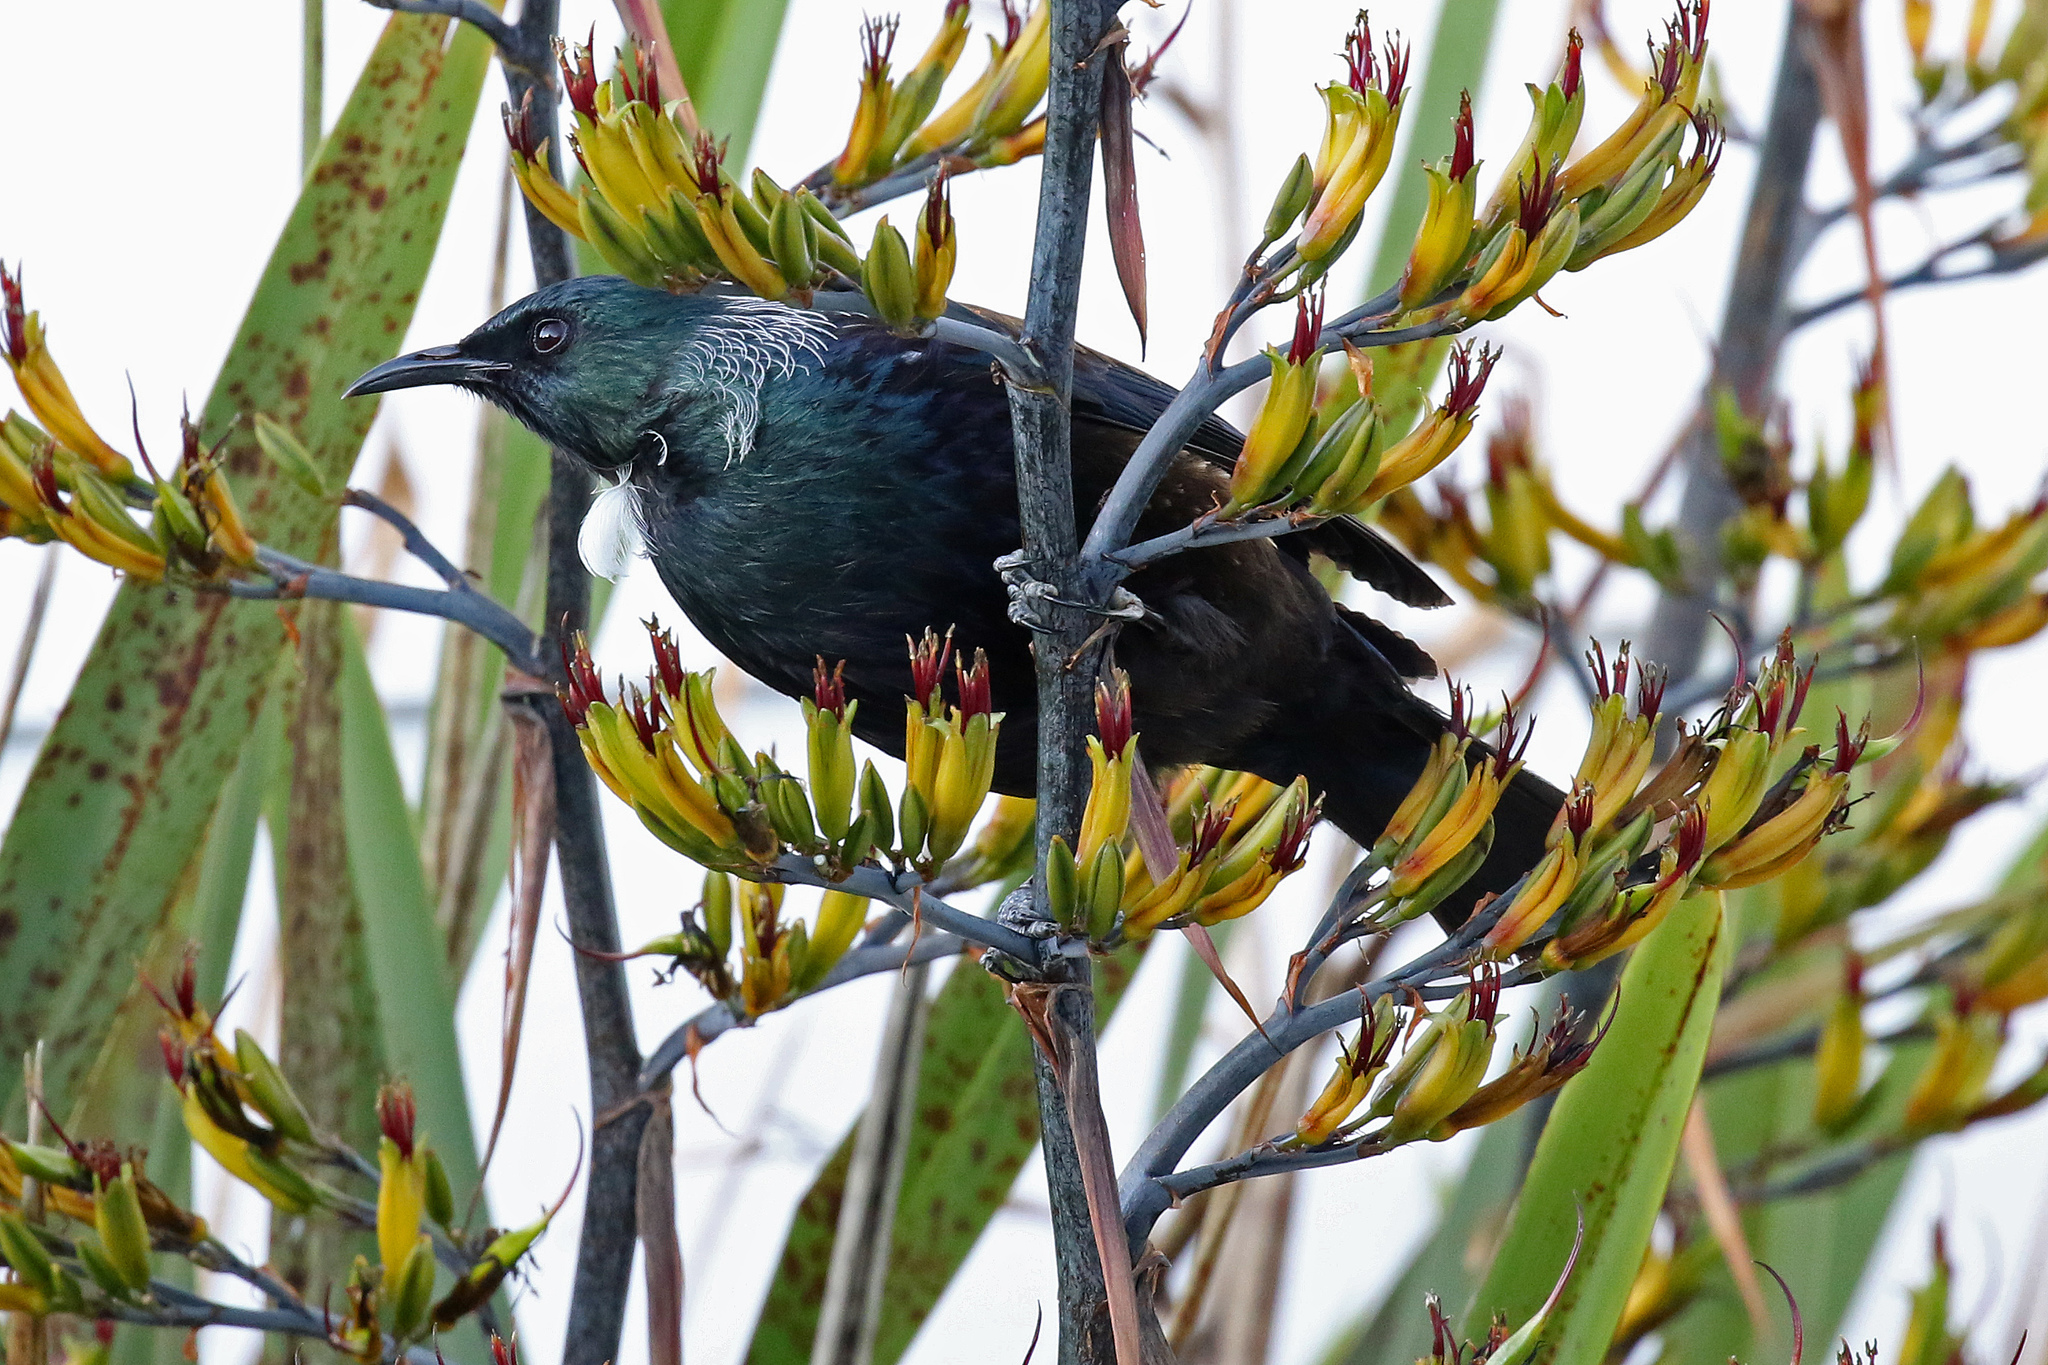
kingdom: Animalia
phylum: Chordata
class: Aves
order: Passeriformes
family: Meliphagidae
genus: Prosthemadera
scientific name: Prosthemadera novaeseelandiae
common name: Tui
